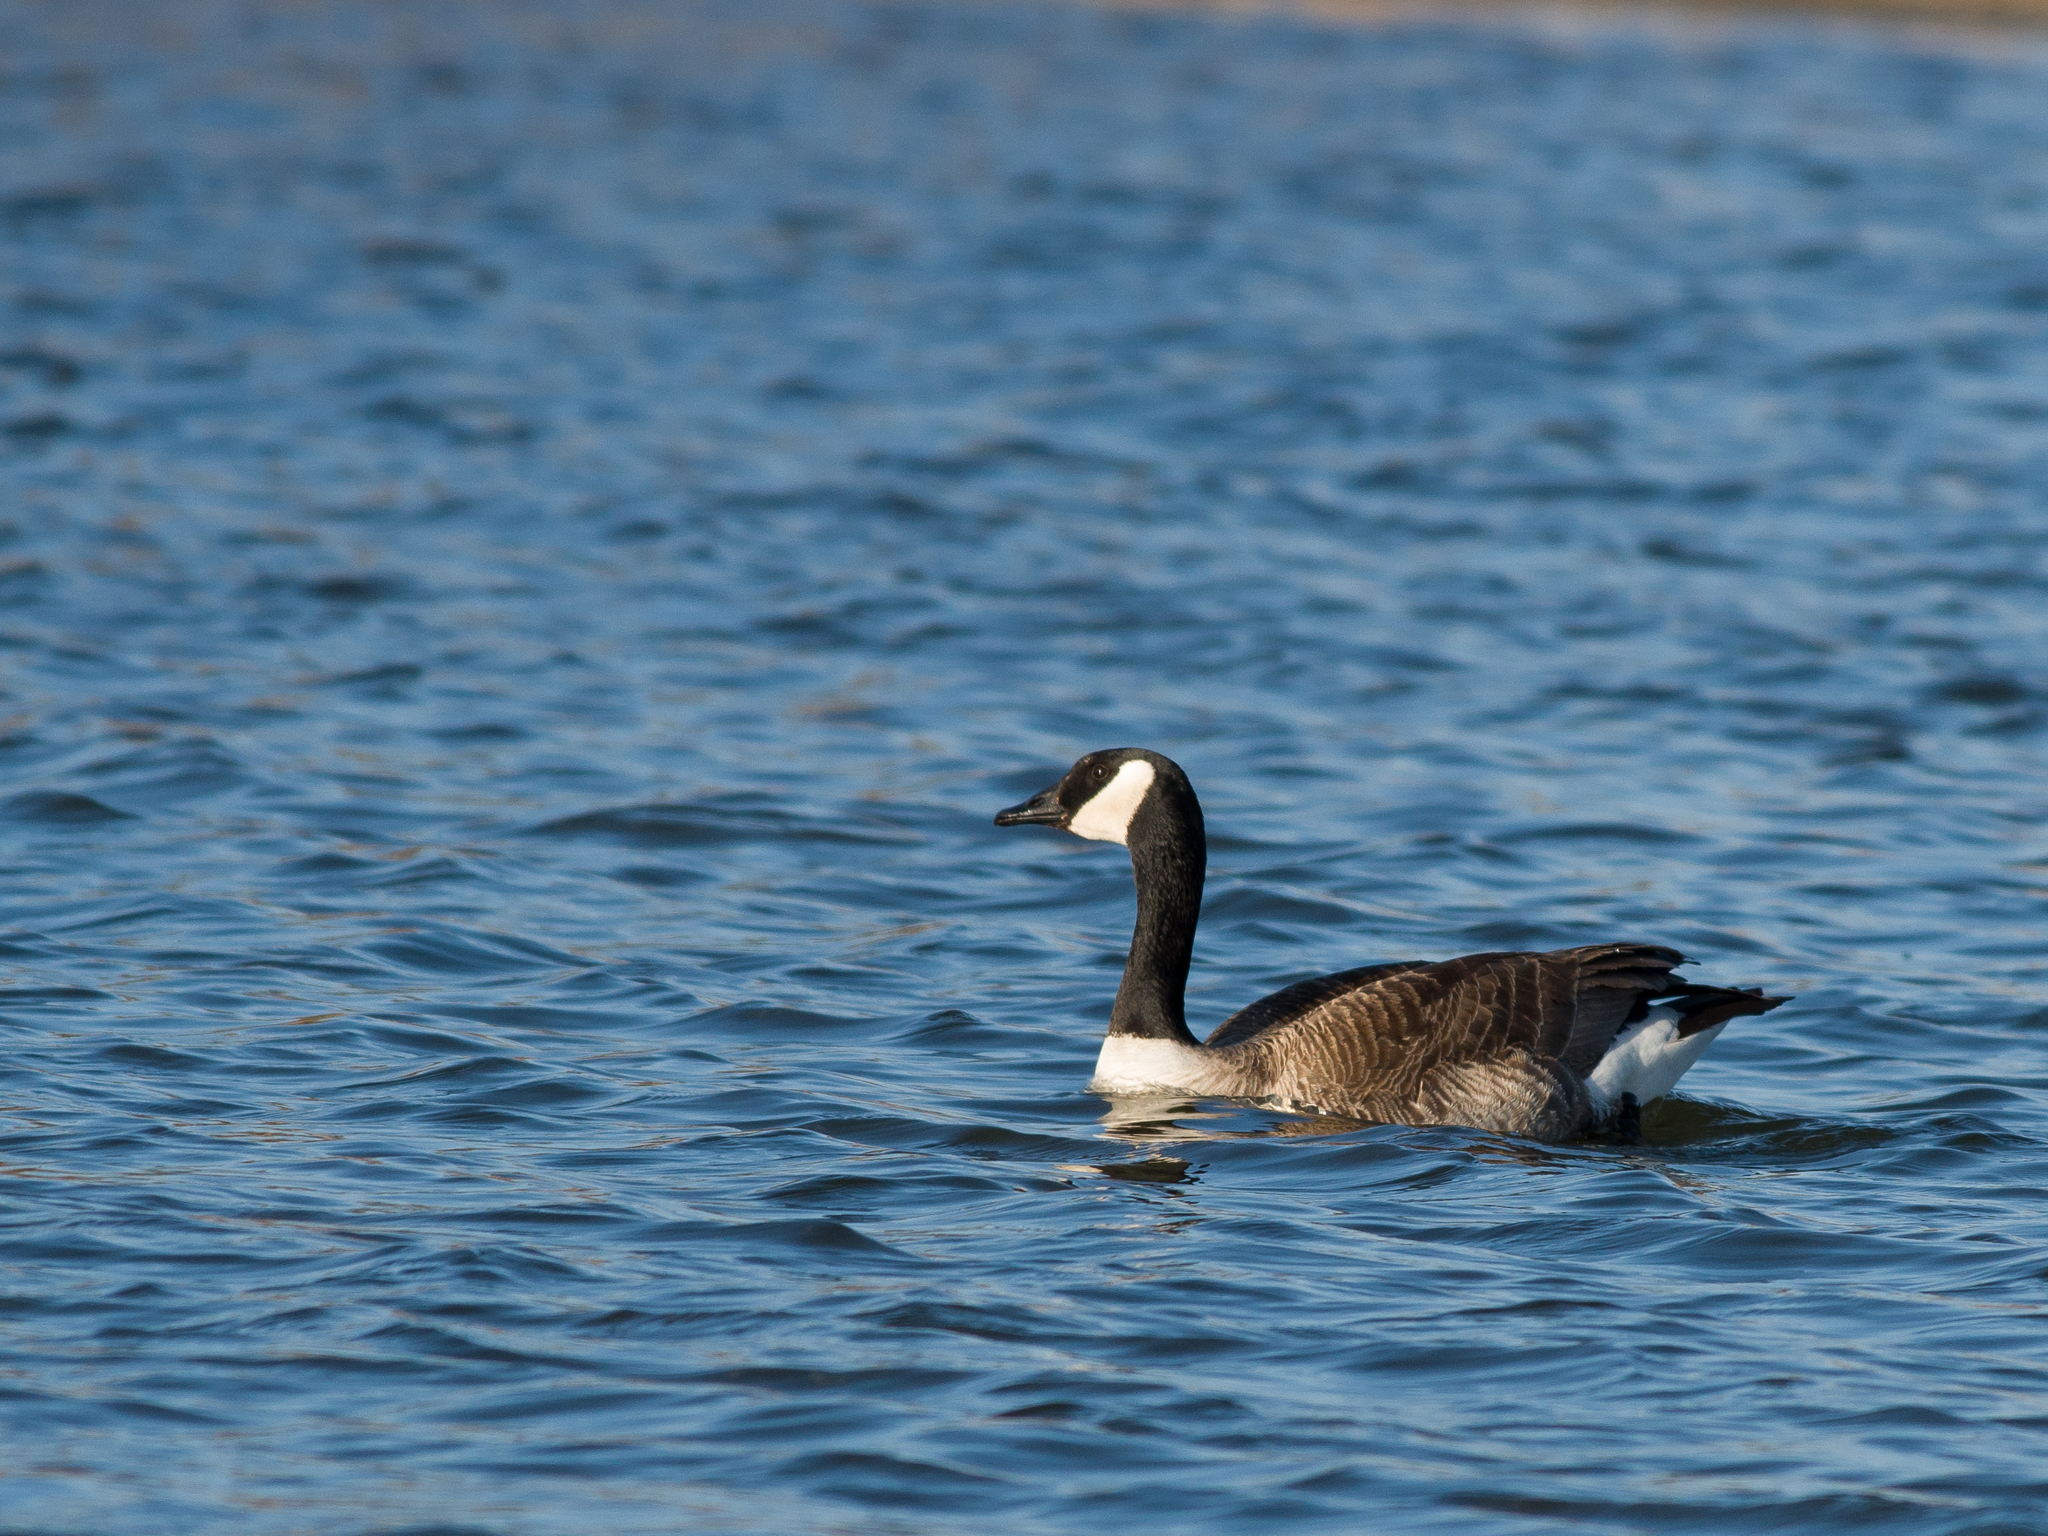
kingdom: Animalia
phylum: Chordata
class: Aves
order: Anseriformes
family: Anatidae
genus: Branta
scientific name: Branta canadensis
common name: Canada goose
